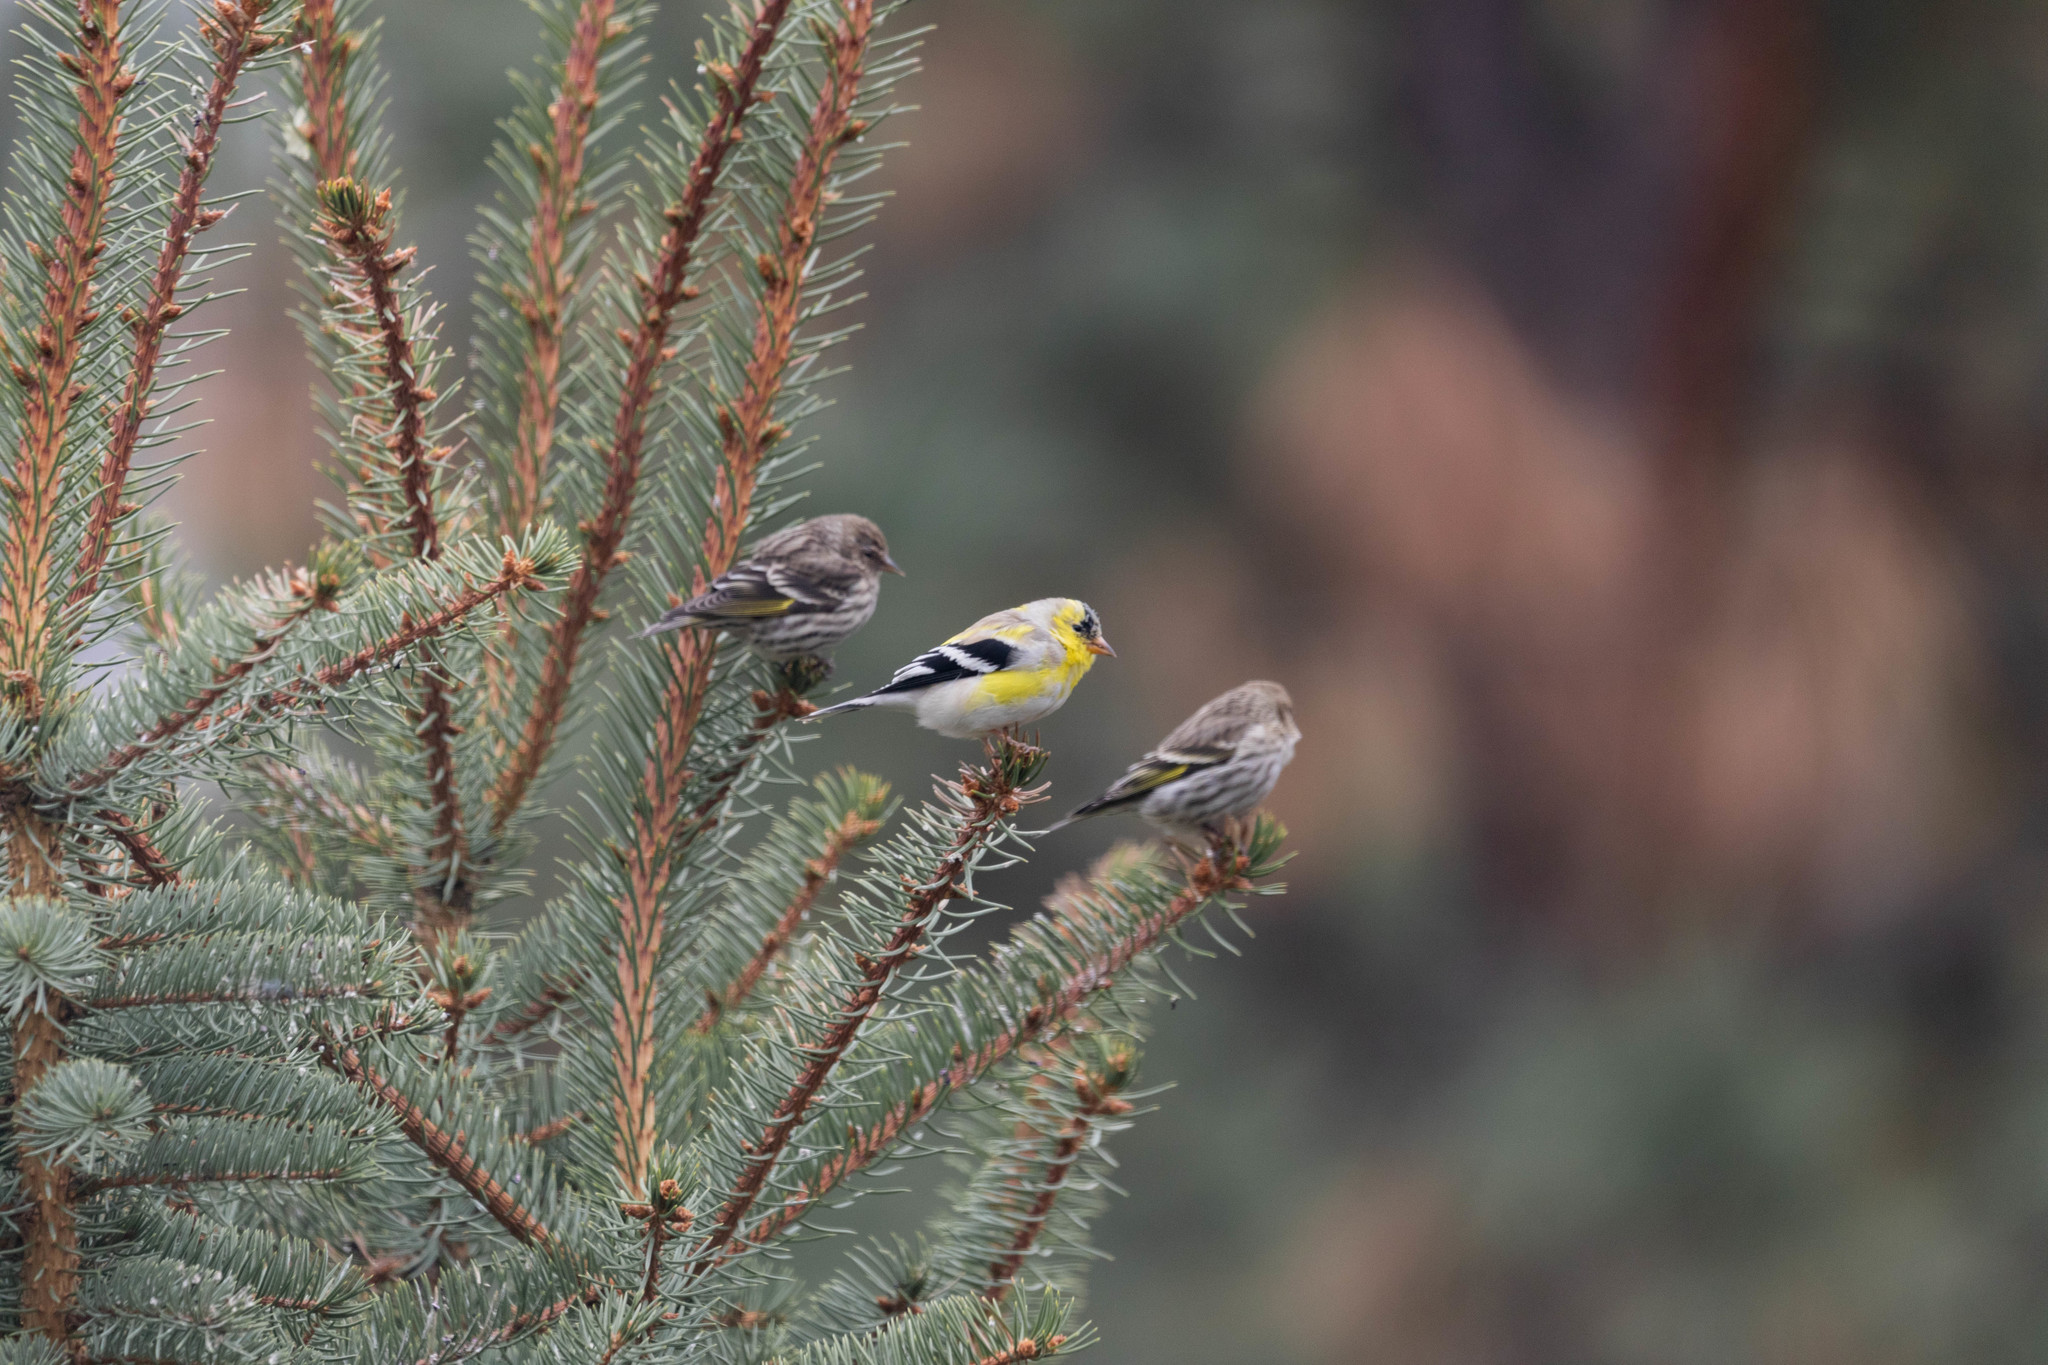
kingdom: Animalia
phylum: Chordata
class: Aves
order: Passeriformes
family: Fringillidae
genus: Spinus
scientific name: Spinus tristis
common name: American goldfinch
